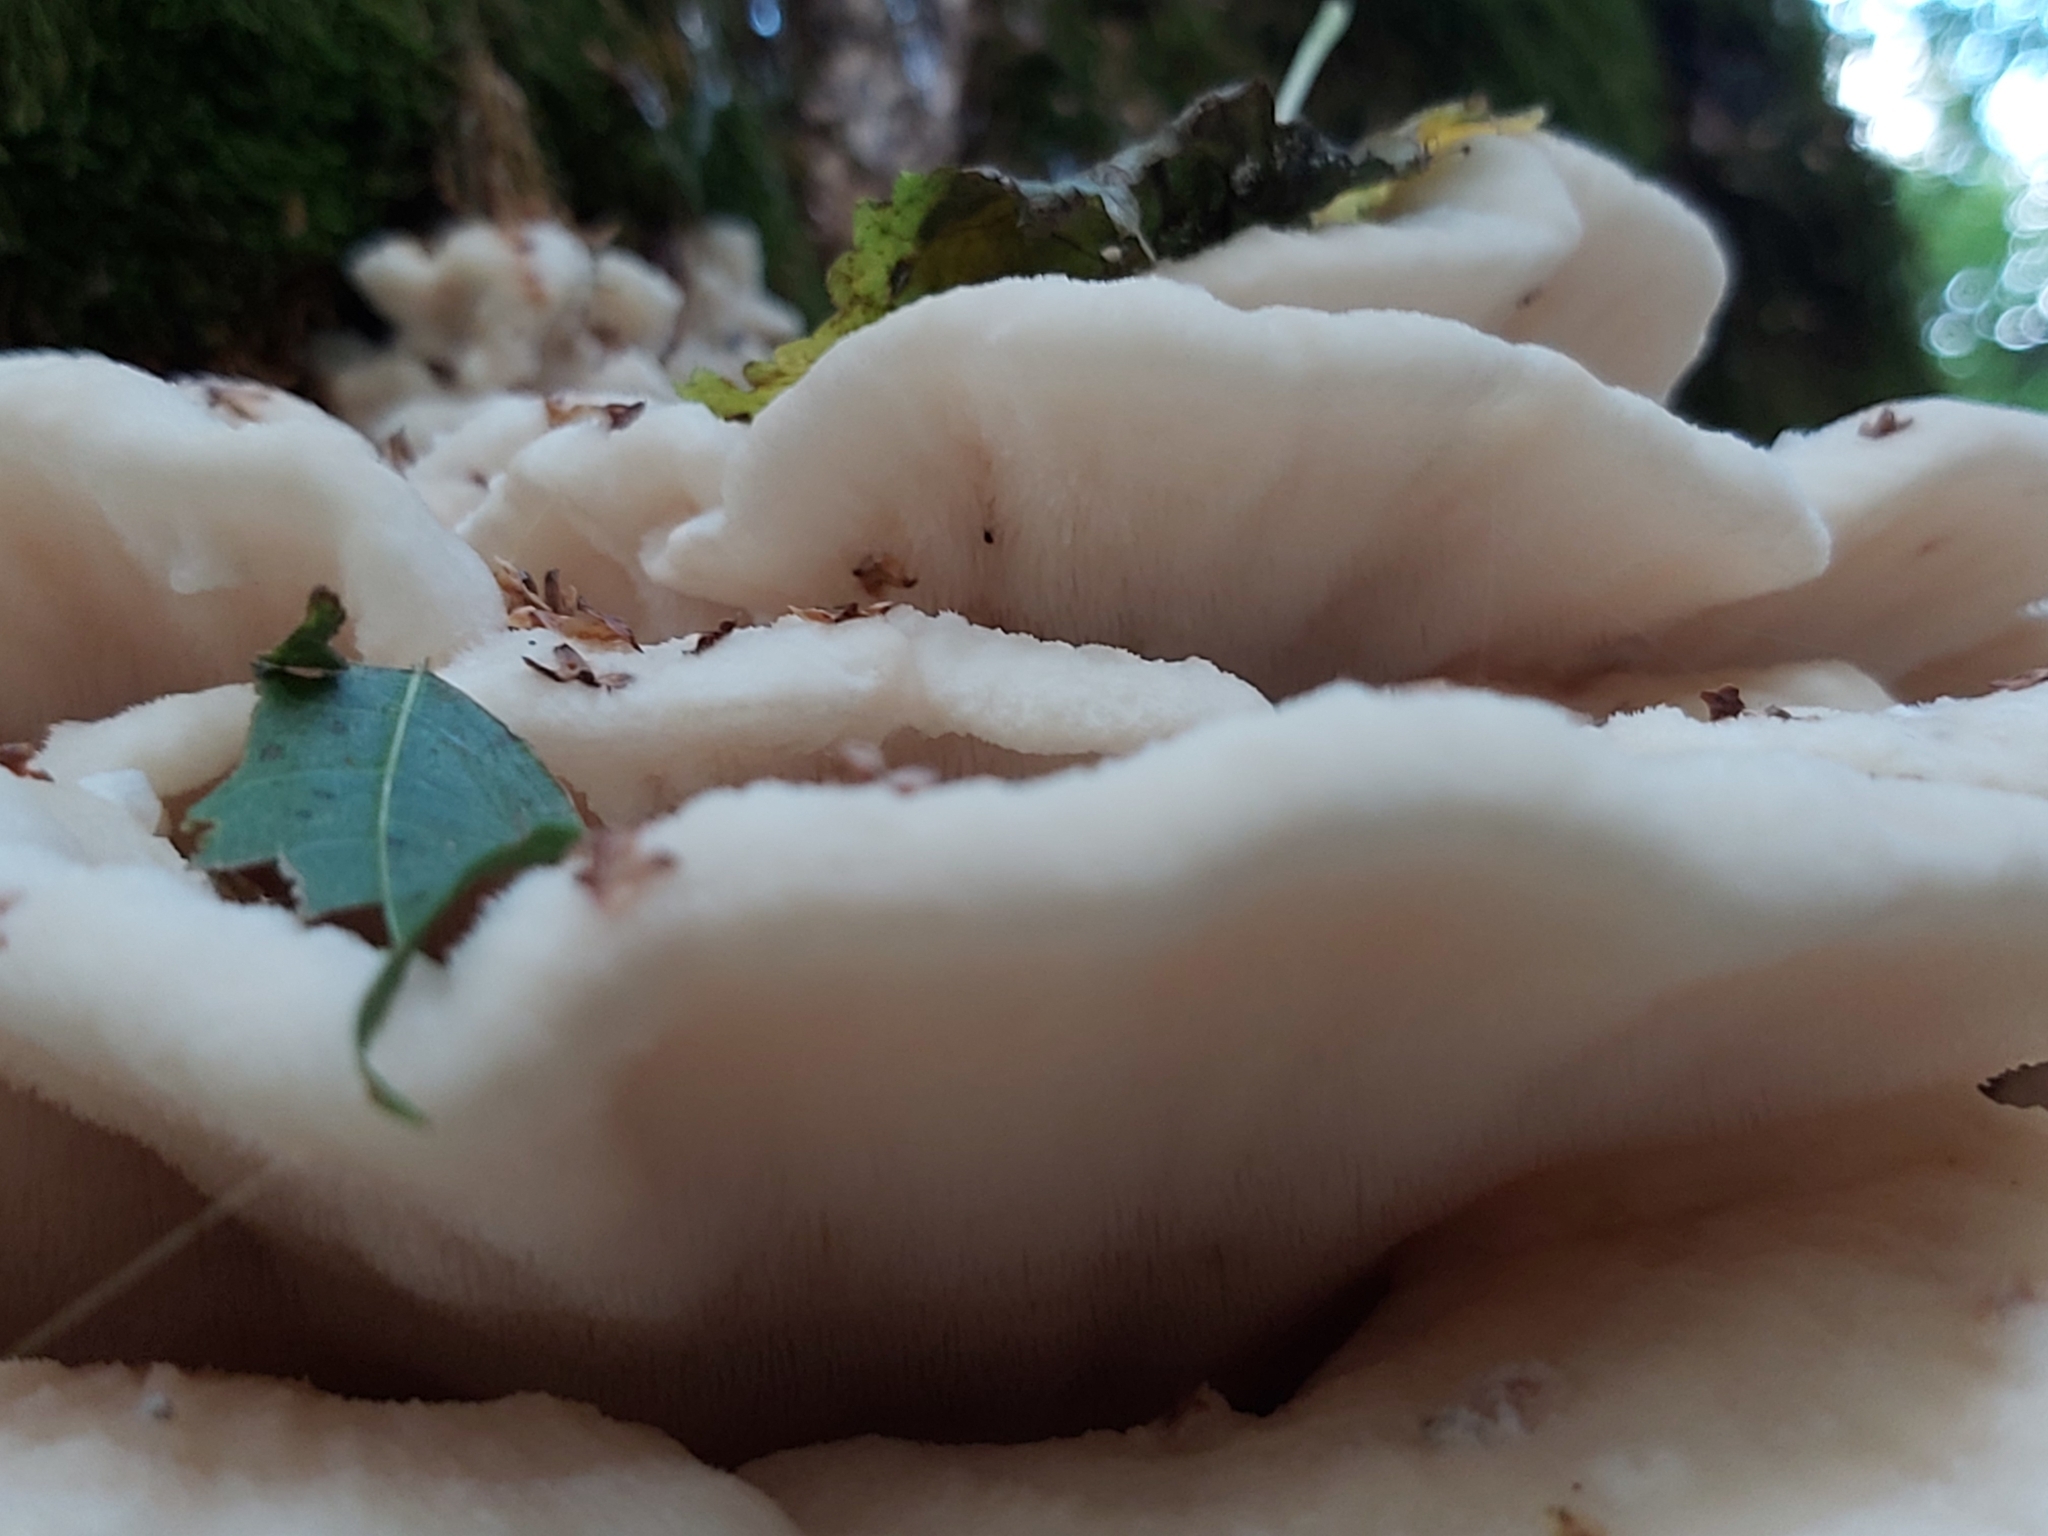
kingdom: Fungi
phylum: Basidiomycota
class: Agaricomycetes
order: Polyporales
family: Meruliaceae
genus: Climacodon
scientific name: Climacodon septentrionalis
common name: Northern tooth
